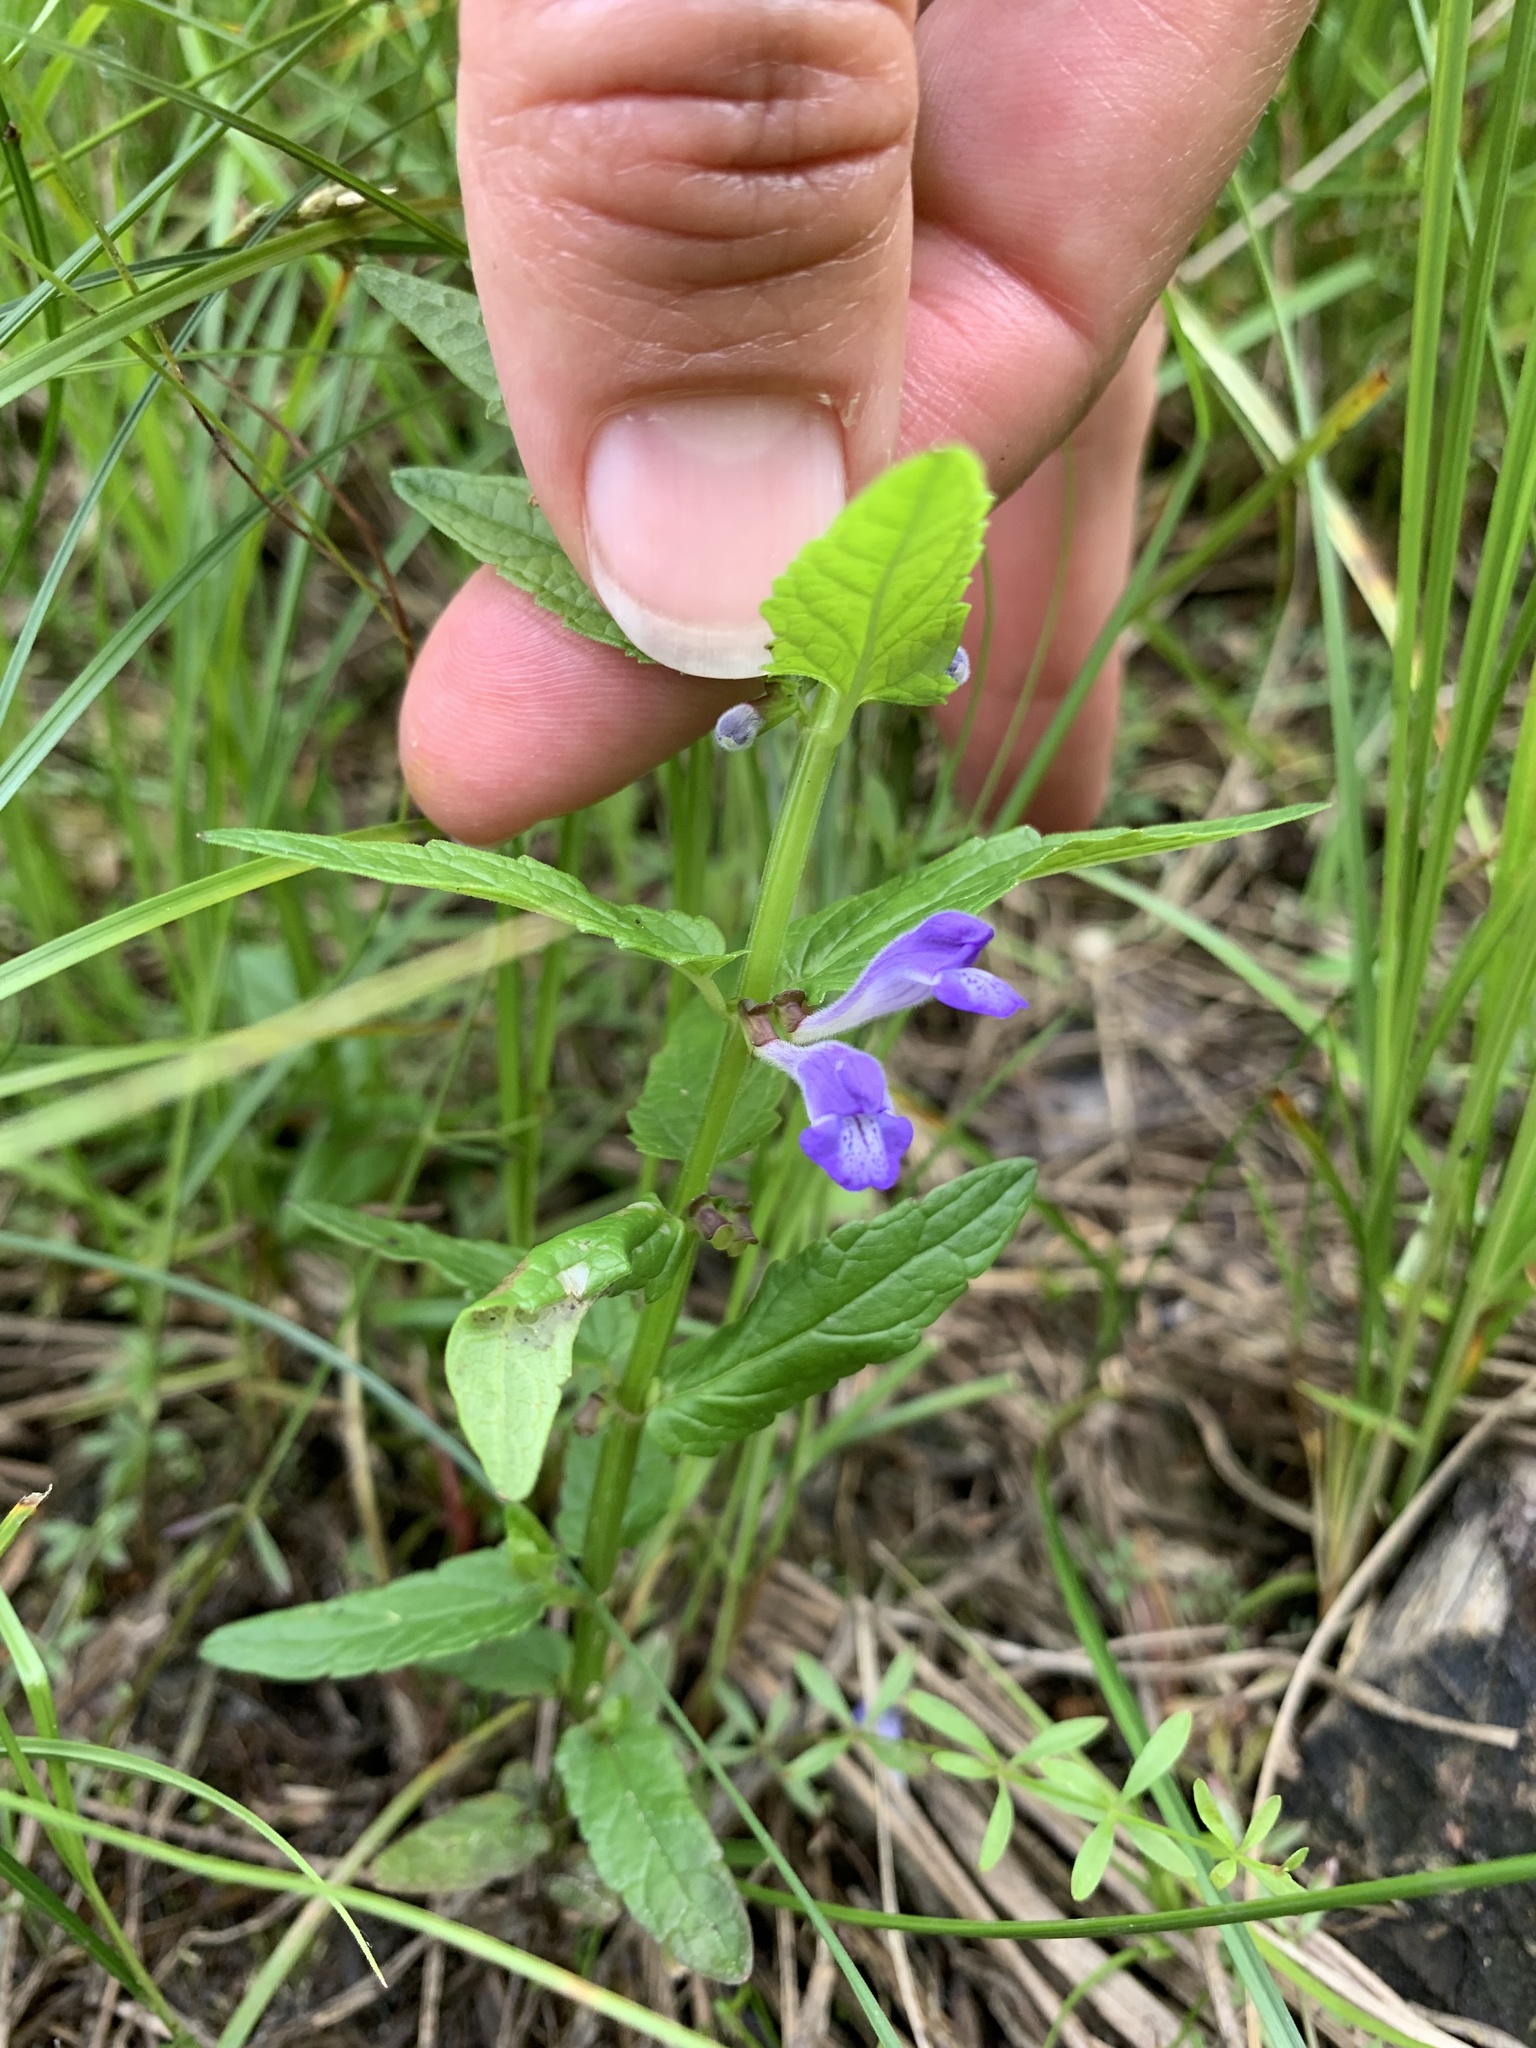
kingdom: Plantae
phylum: Tracheophyta
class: Magnoliopsida
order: Lamiales
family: Lamiaceae
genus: Scutellaria
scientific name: Scutellaria galericulata
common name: Skullcap
